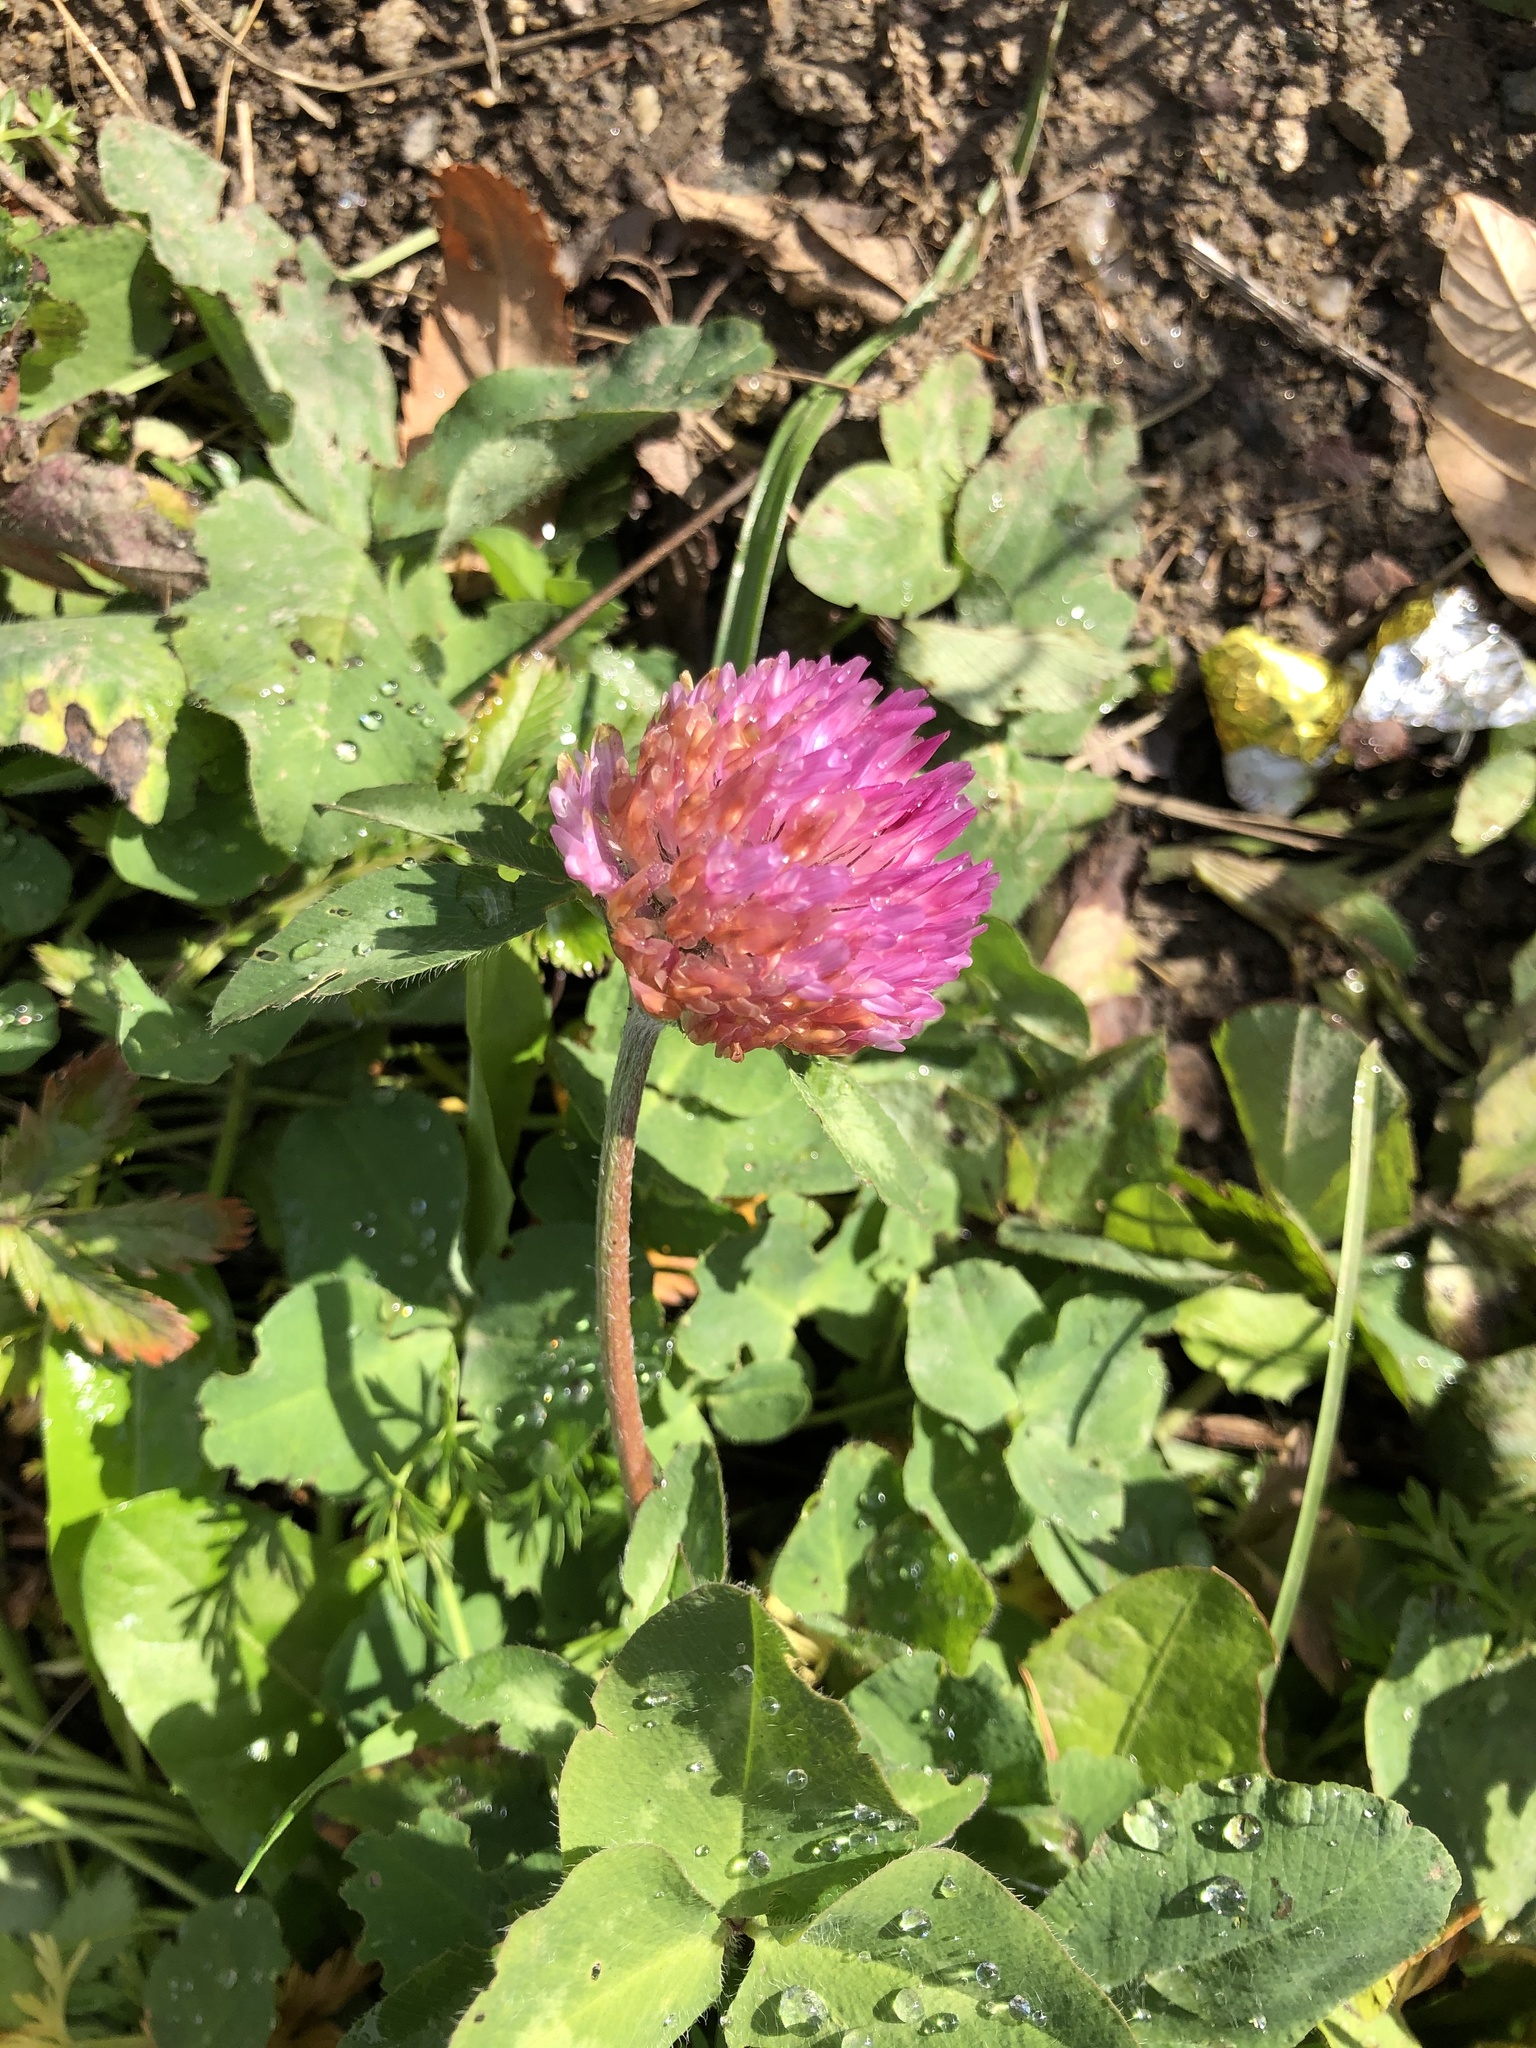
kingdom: Plantae
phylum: Tracheophyta
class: Magnoliopsida
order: Fabales
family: Fabaceae
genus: Trifolium
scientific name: Trifolium pratense
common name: Red clover
